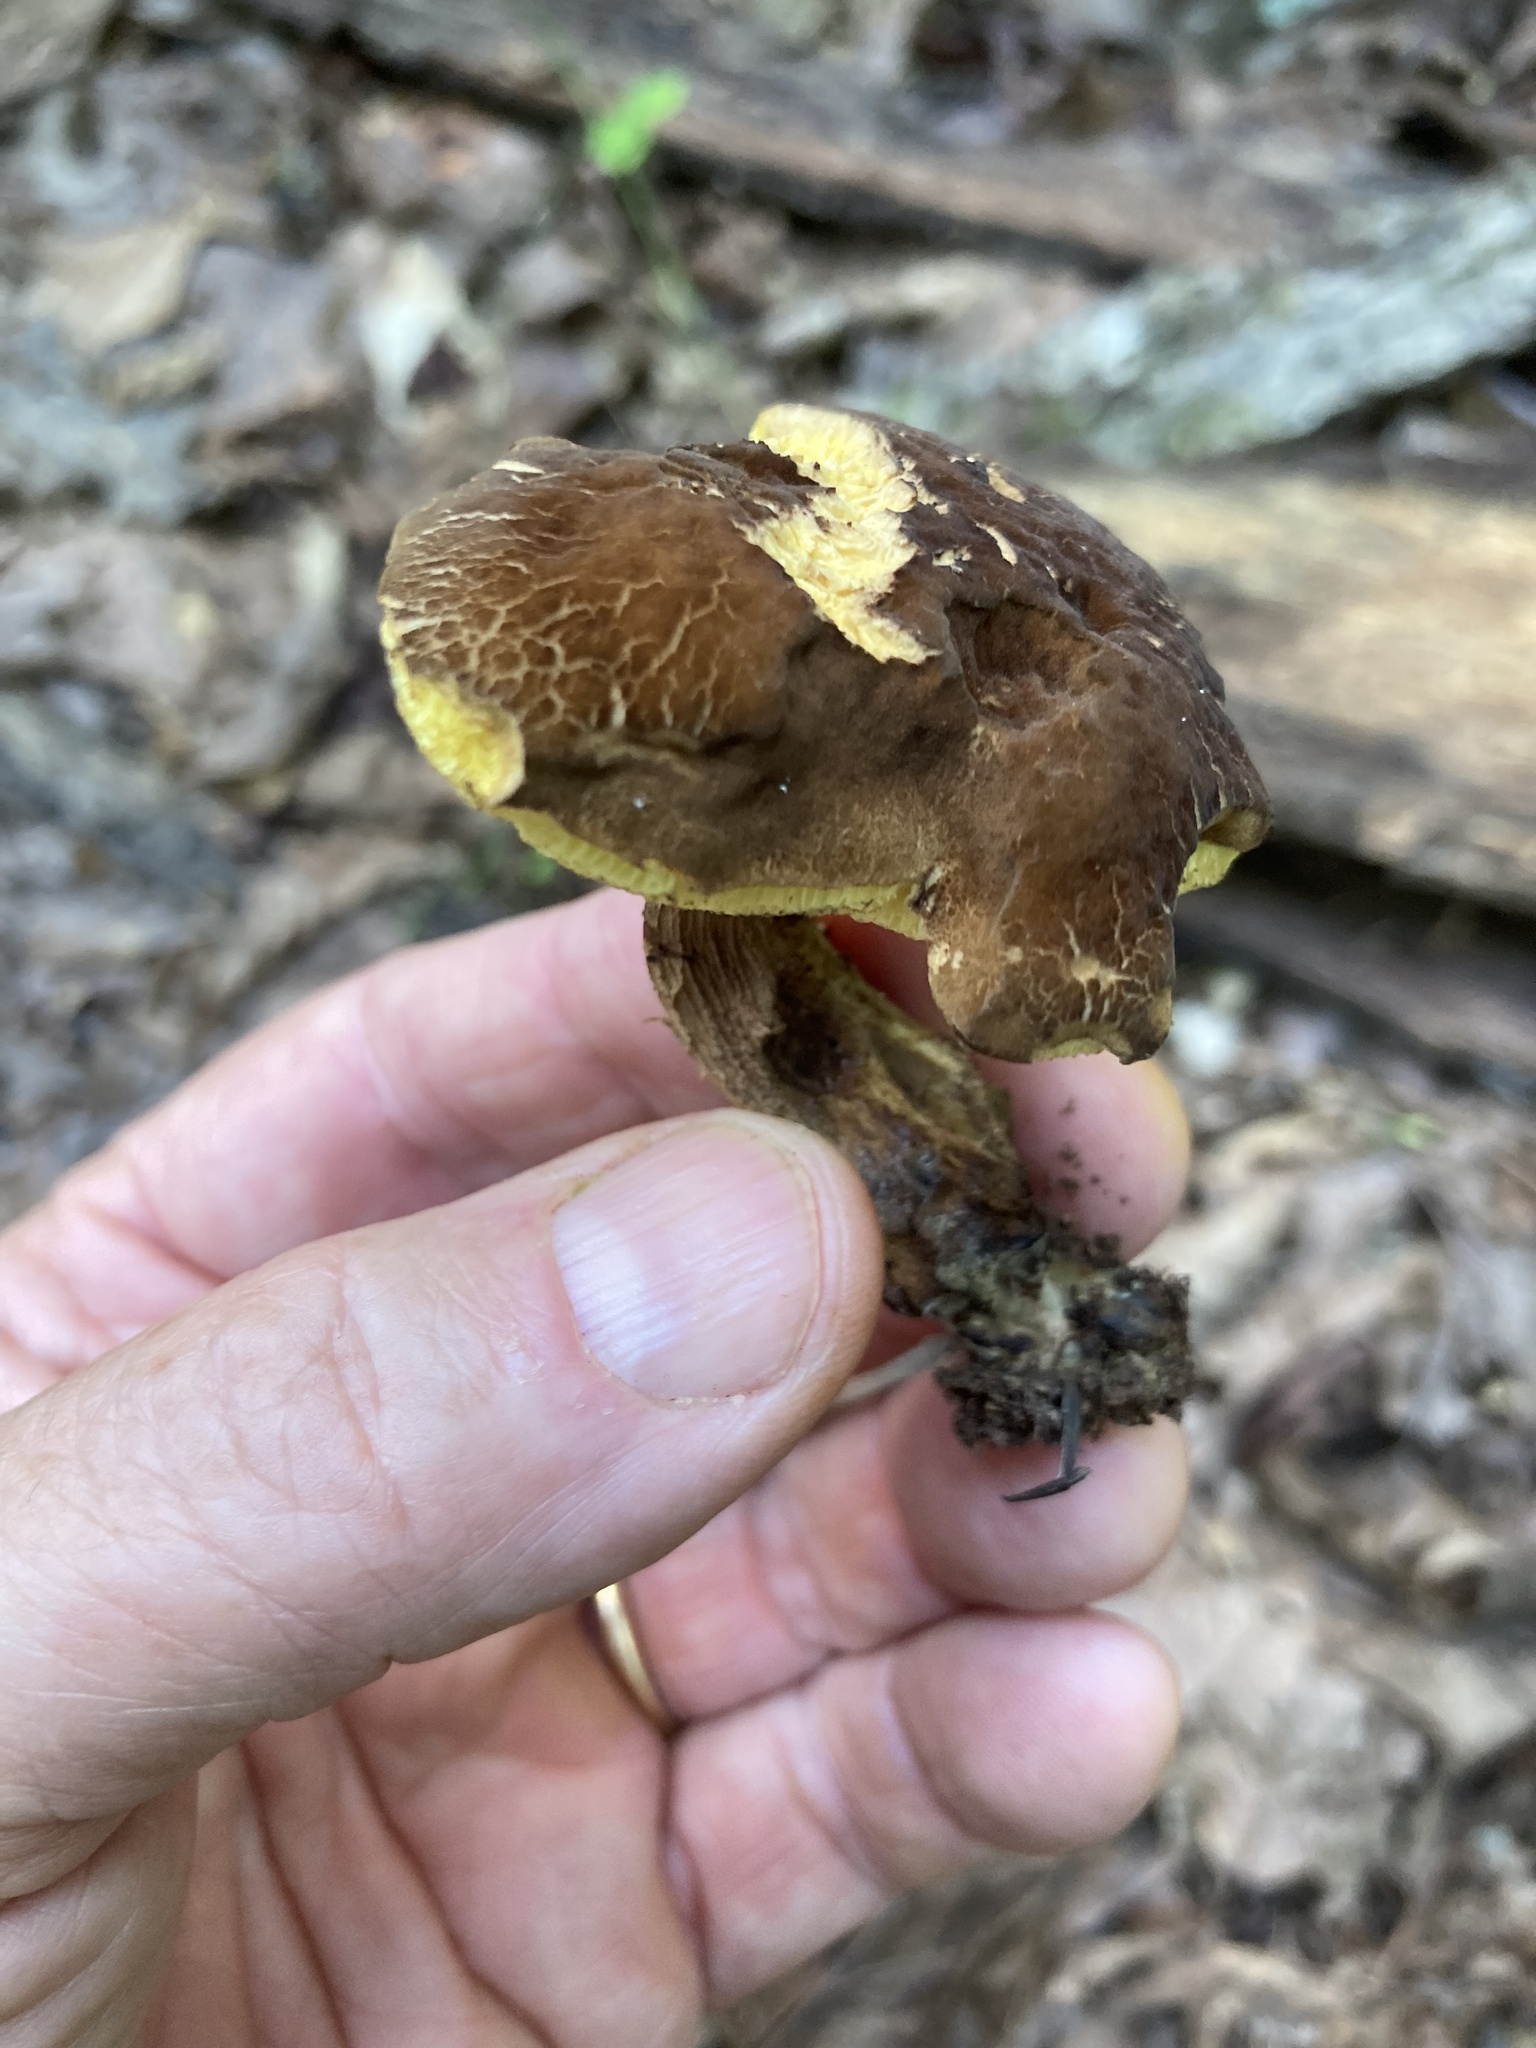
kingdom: Fungi
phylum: Basidiomycota
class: Agaricomycetes
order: Boletales
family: Boletaceae
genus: Boletellus
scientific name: Boletellus chrysenteroides
